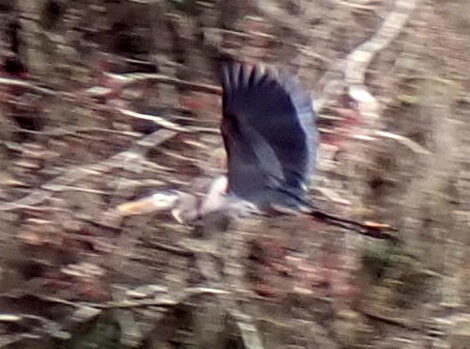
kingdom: Animalia
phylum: Chordata
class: Aves
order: Pelecaniformes
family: Ardeidae
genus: Ardea
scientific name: Ardea herodias
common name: Great blue heron
